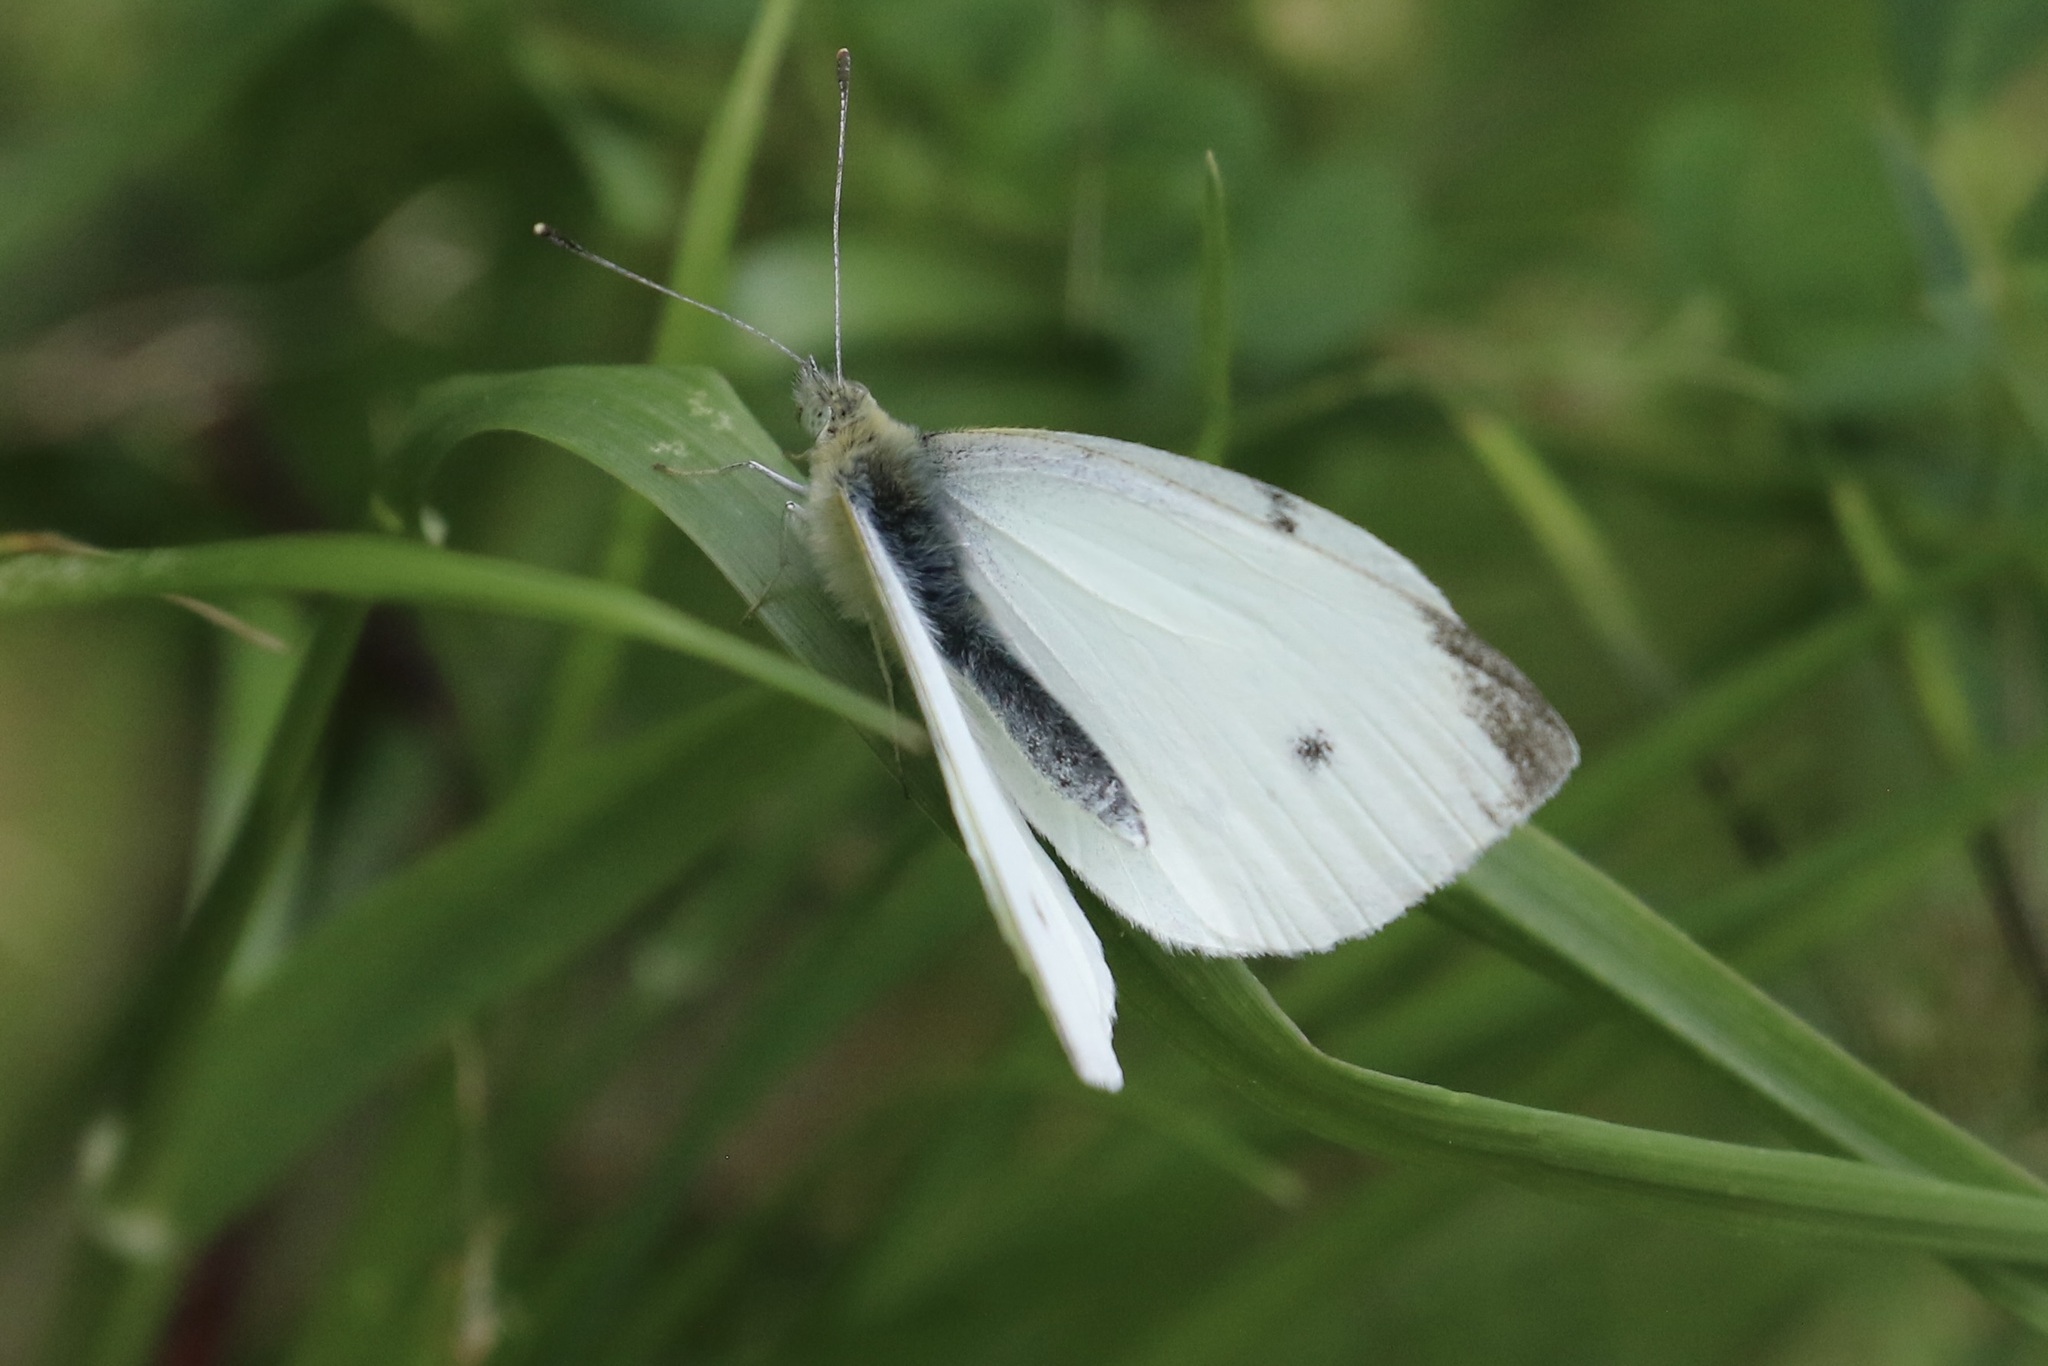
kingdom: Animalia
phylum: Arthropoda
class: Insecta
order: Lepidoptera
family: Pieridae
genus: Pieris
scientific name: Pieris rapae
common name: Small white
